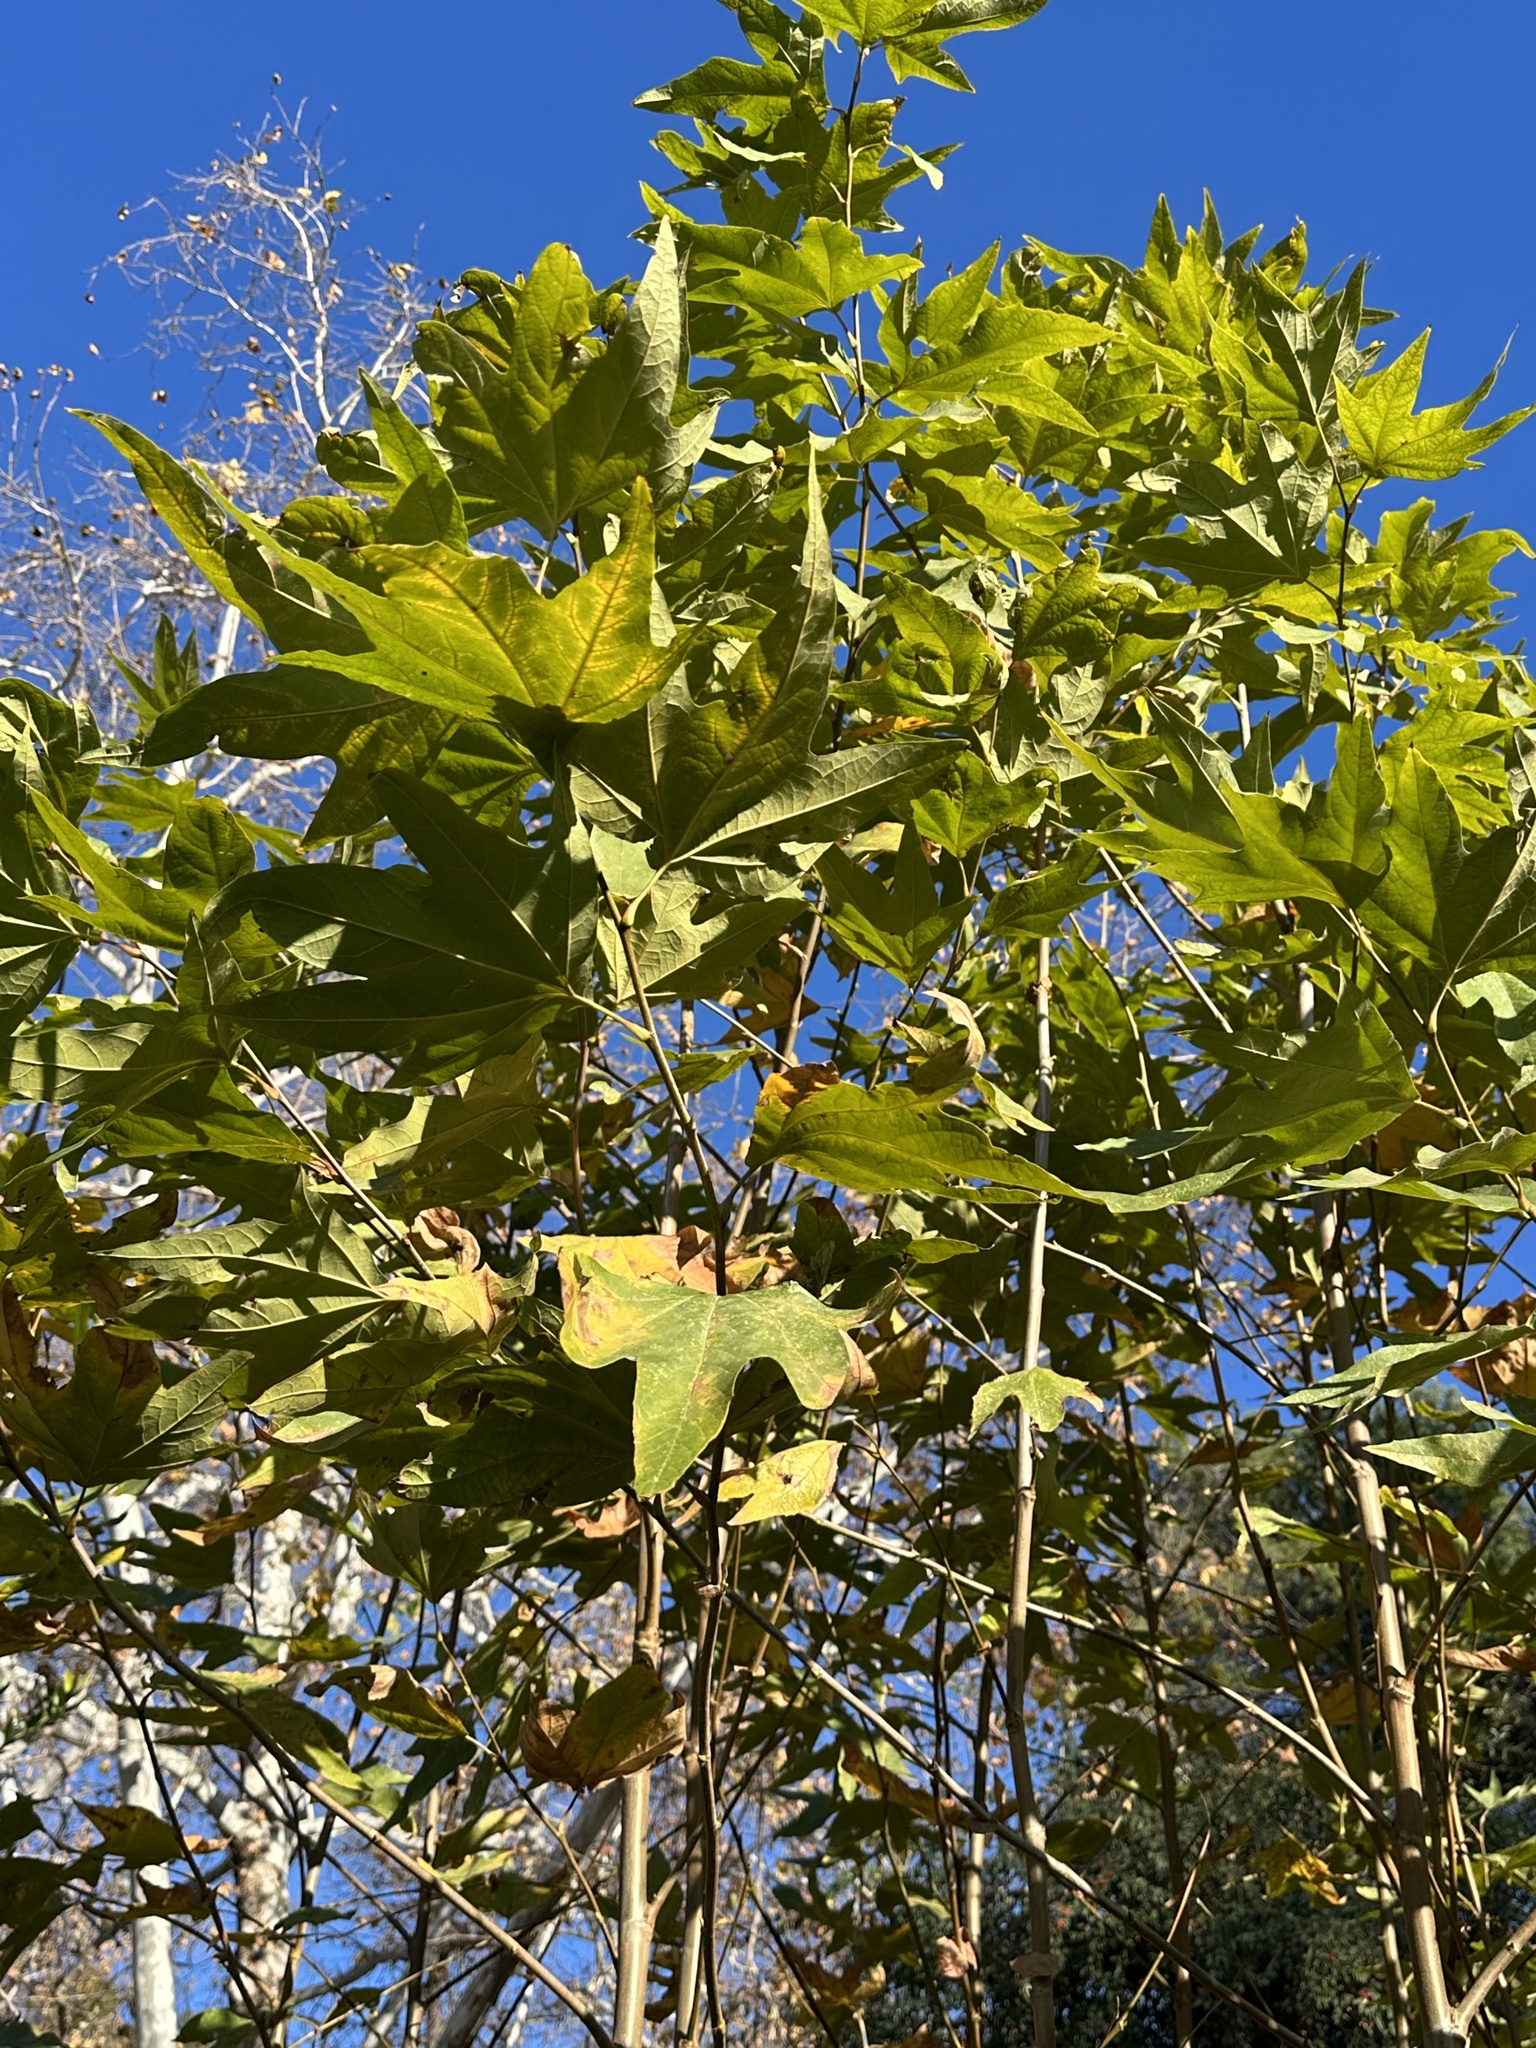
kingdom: Plantae
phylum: Tracheophyta
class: Magnoliopsida
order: Proteales
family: Platanaceae
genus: Platanus
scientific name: Platanus racemosa
